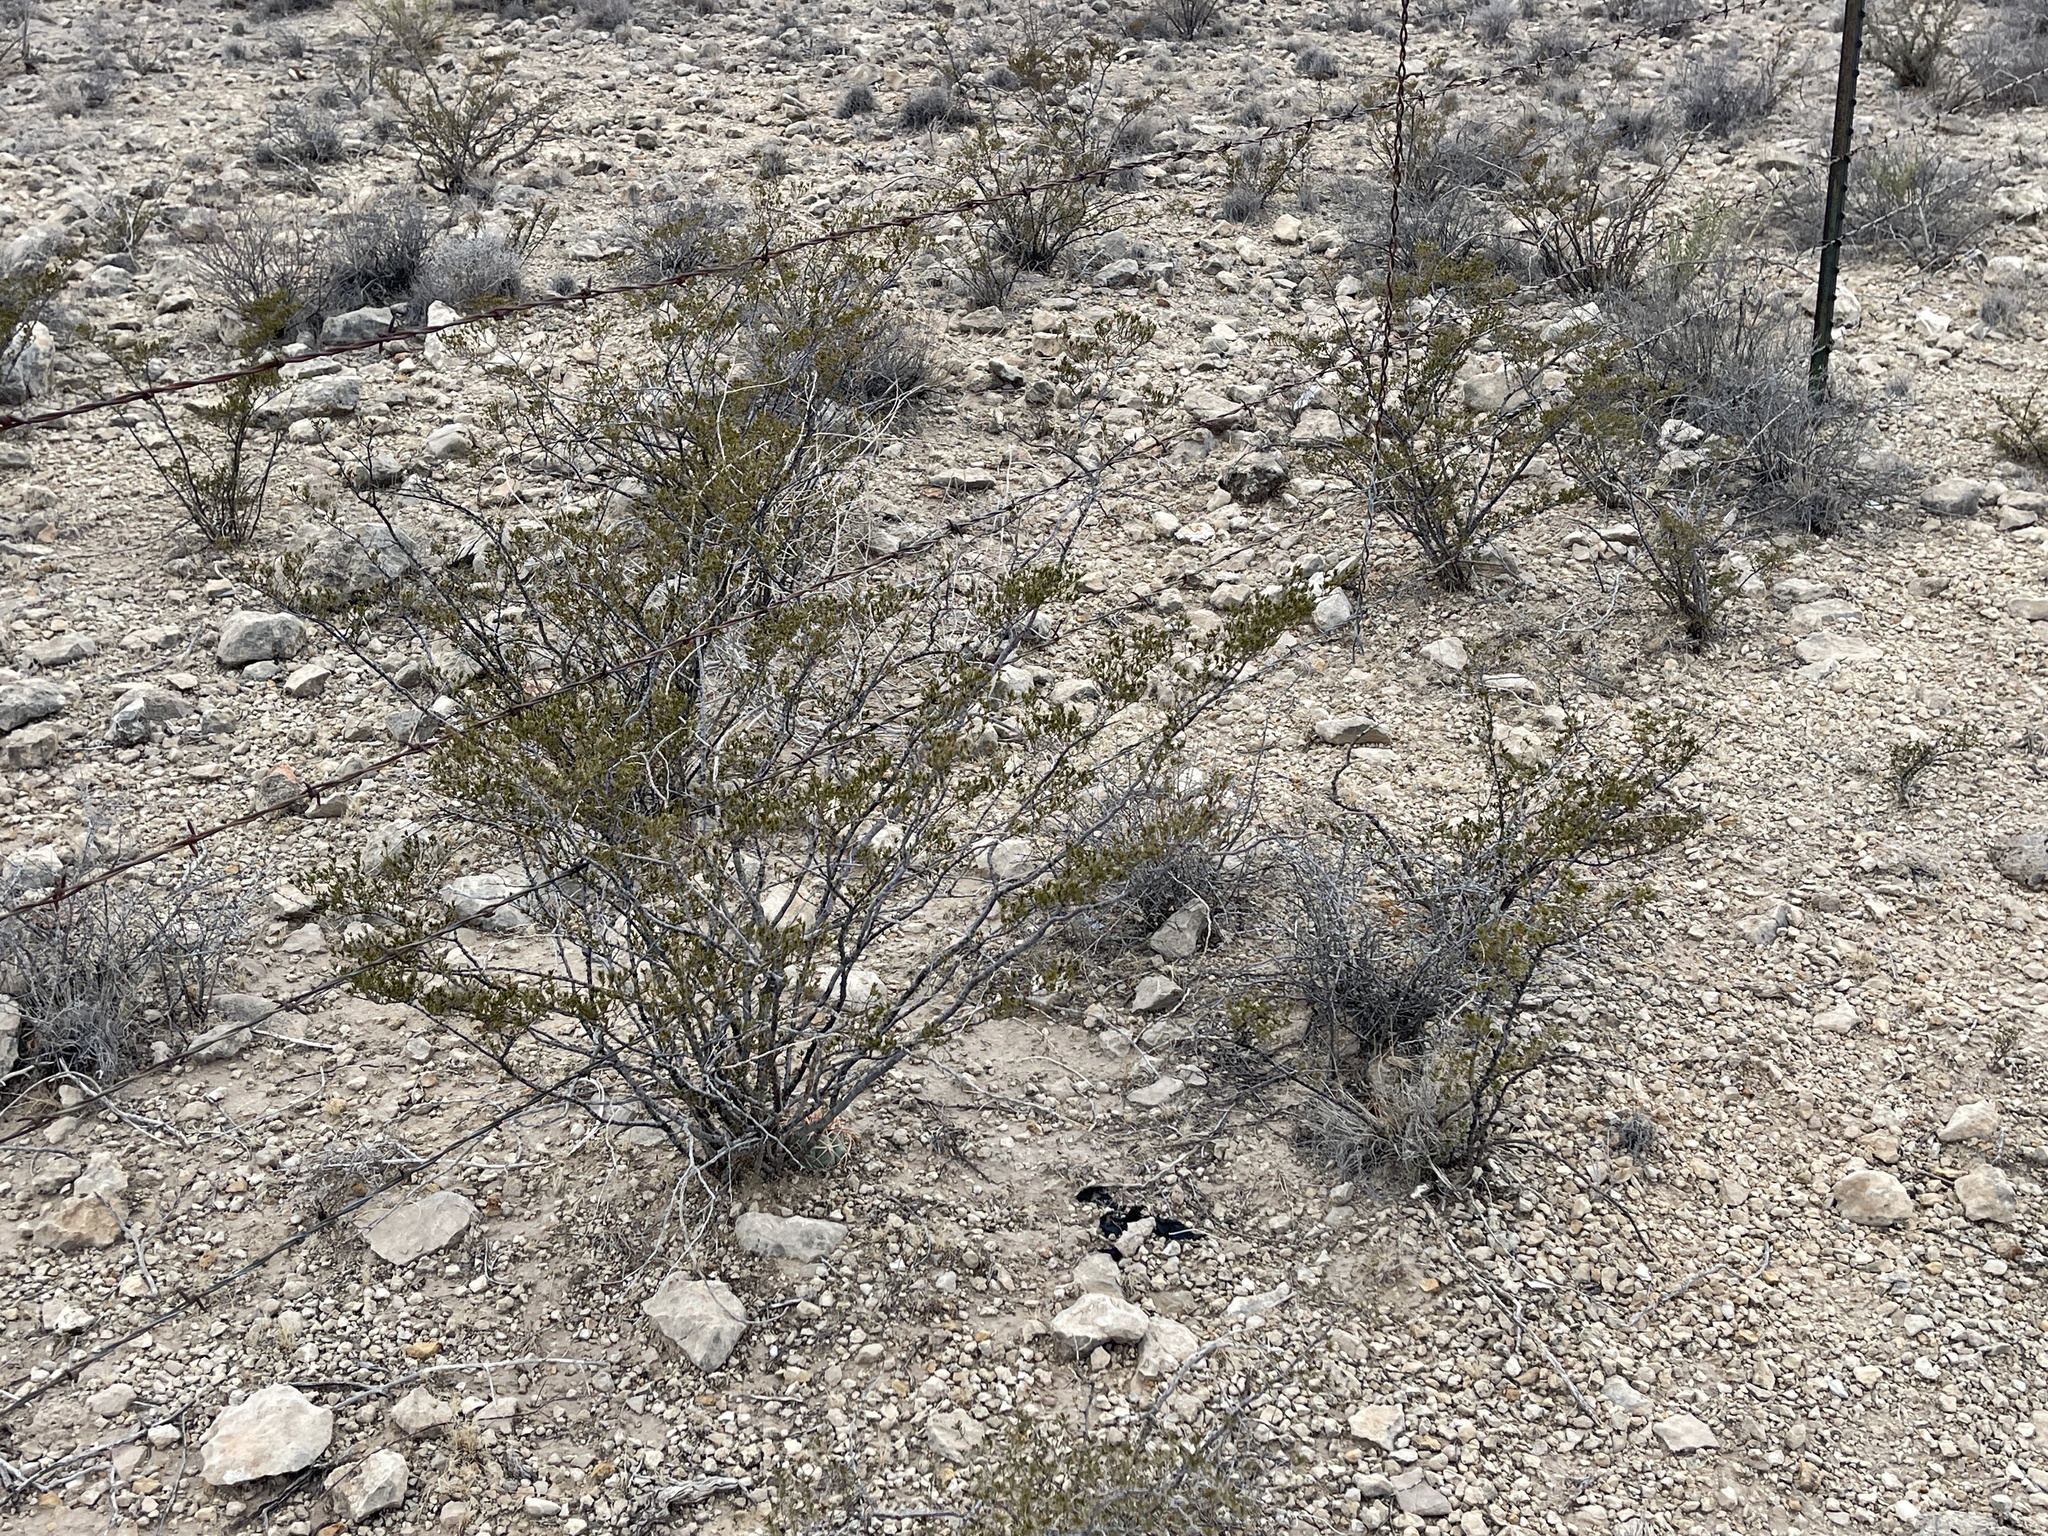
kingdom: Plantae
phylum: Tracheophyta
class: Magnoliopsida
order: Zygophyllales
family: Zygophyllaceae
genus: Larrea
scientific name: Larrea tridentata
